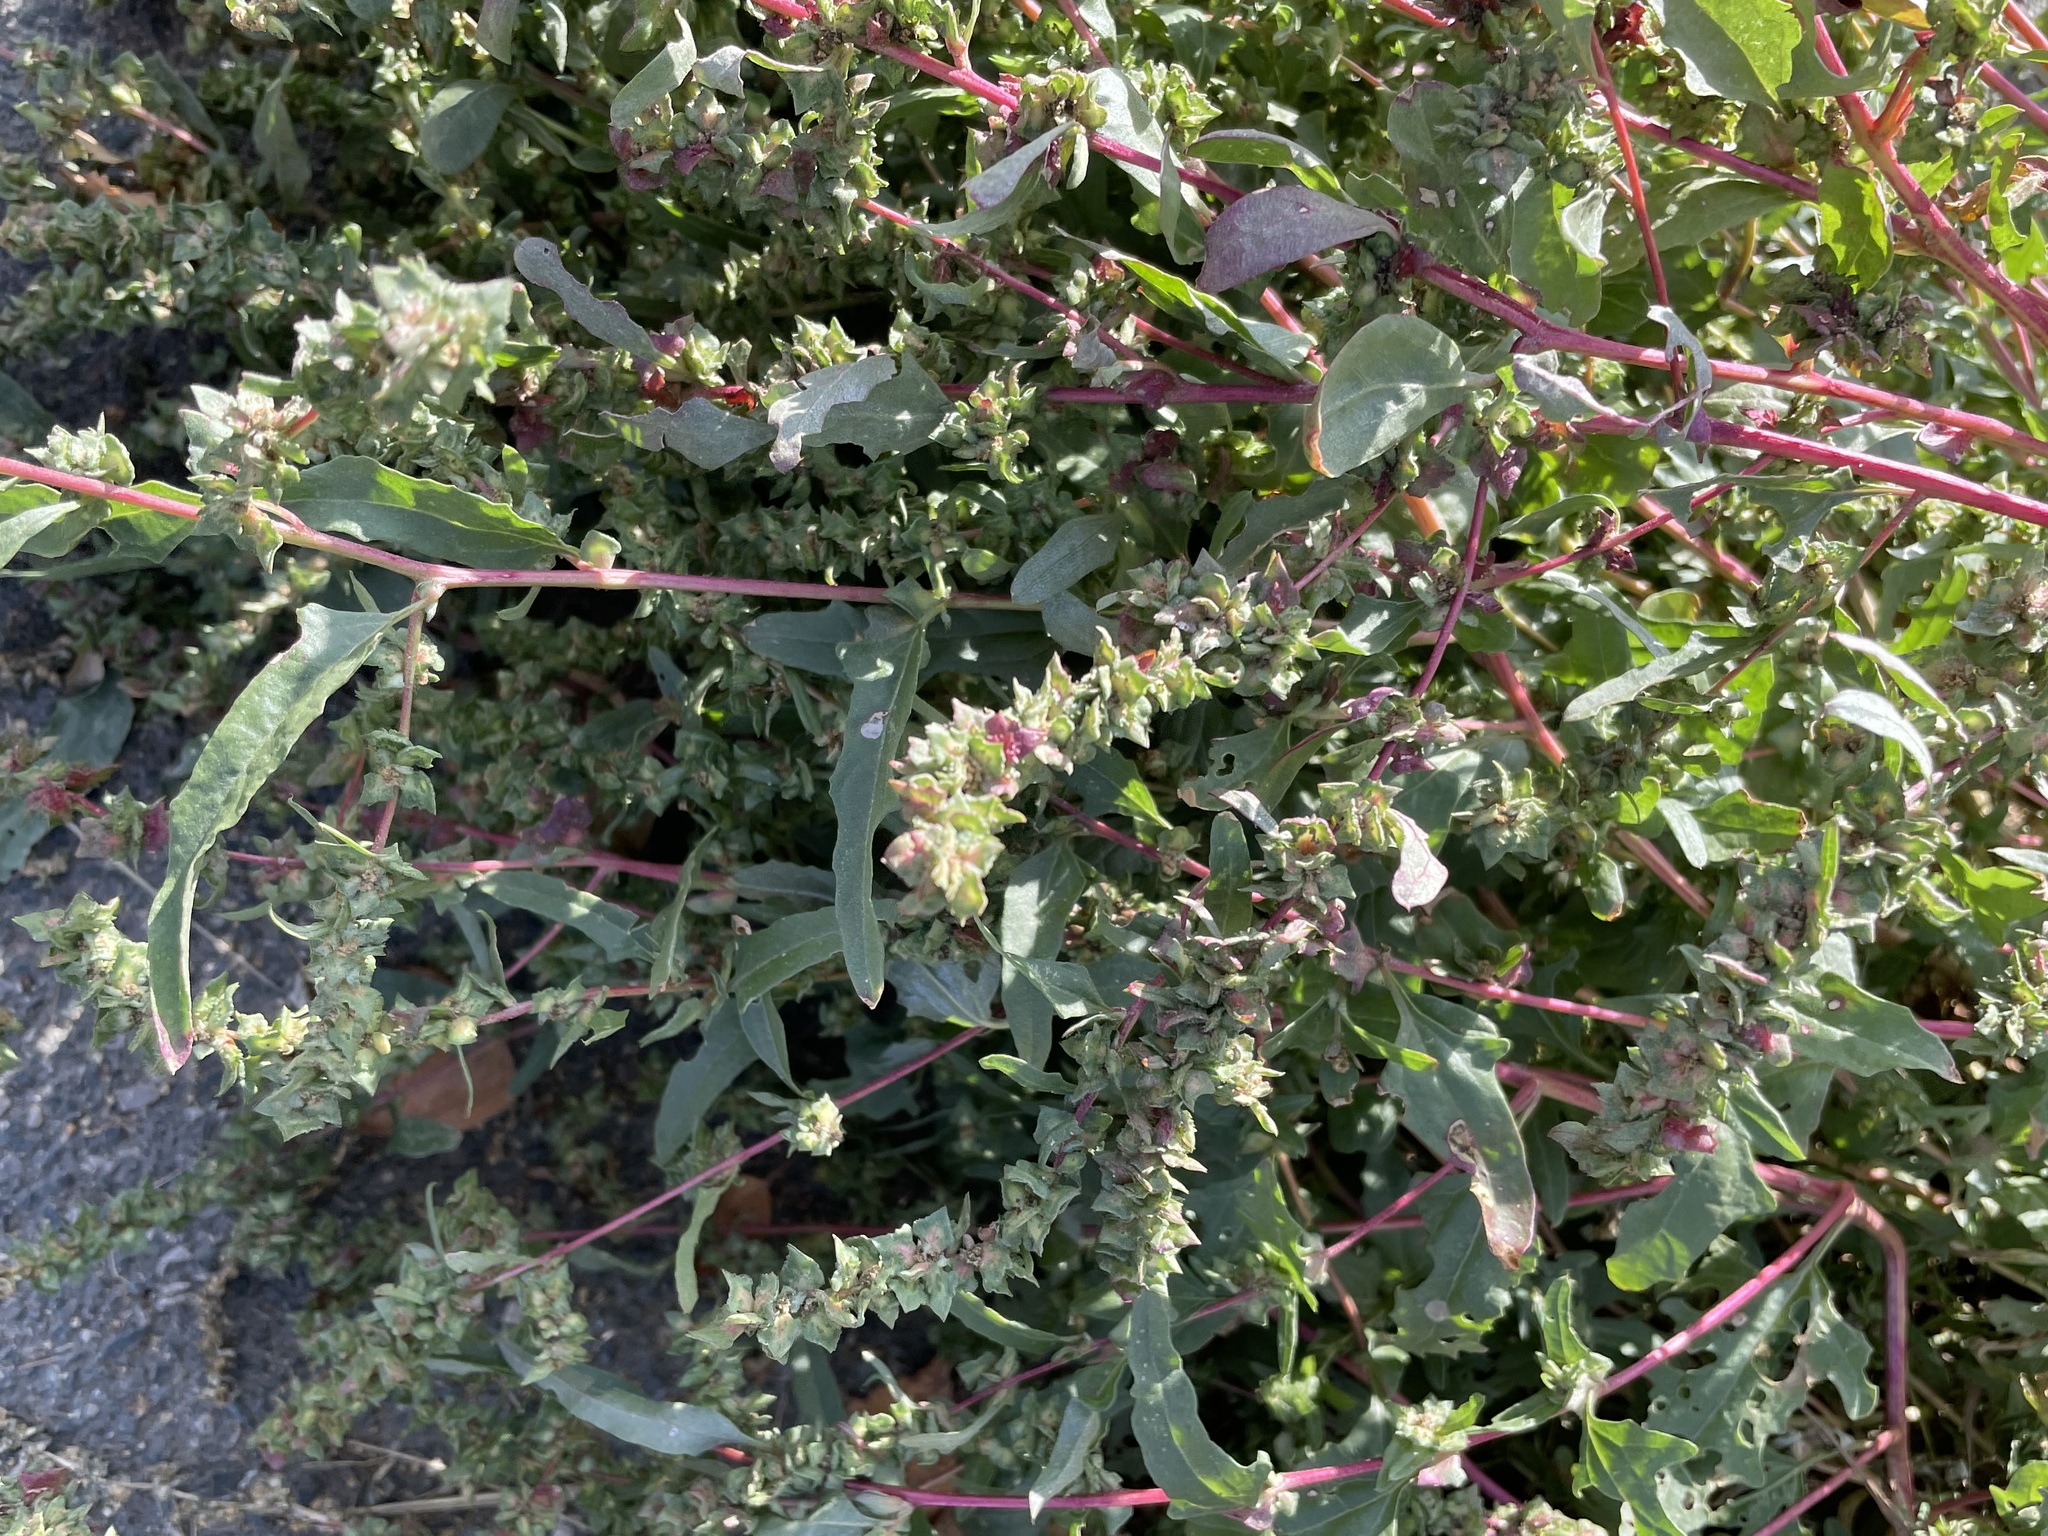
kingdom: Plantae
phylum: Tracheophyta
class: Magnoliopsida
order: Caryophyllales
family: Amaranthaceae
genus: Atriplex
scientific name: Atriplex tatarica
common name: Tatarian orache
